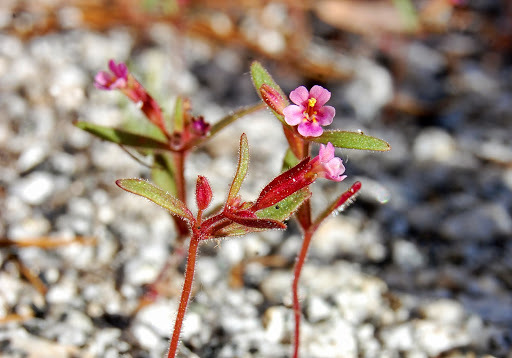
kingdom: Plantae
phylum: Tracheophyta
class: Magnoliopsida
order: Lamiales
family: Phrymaceae
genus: Erythranthe
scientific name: Erythranthe breweri
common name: Brewer's monkeyflower
